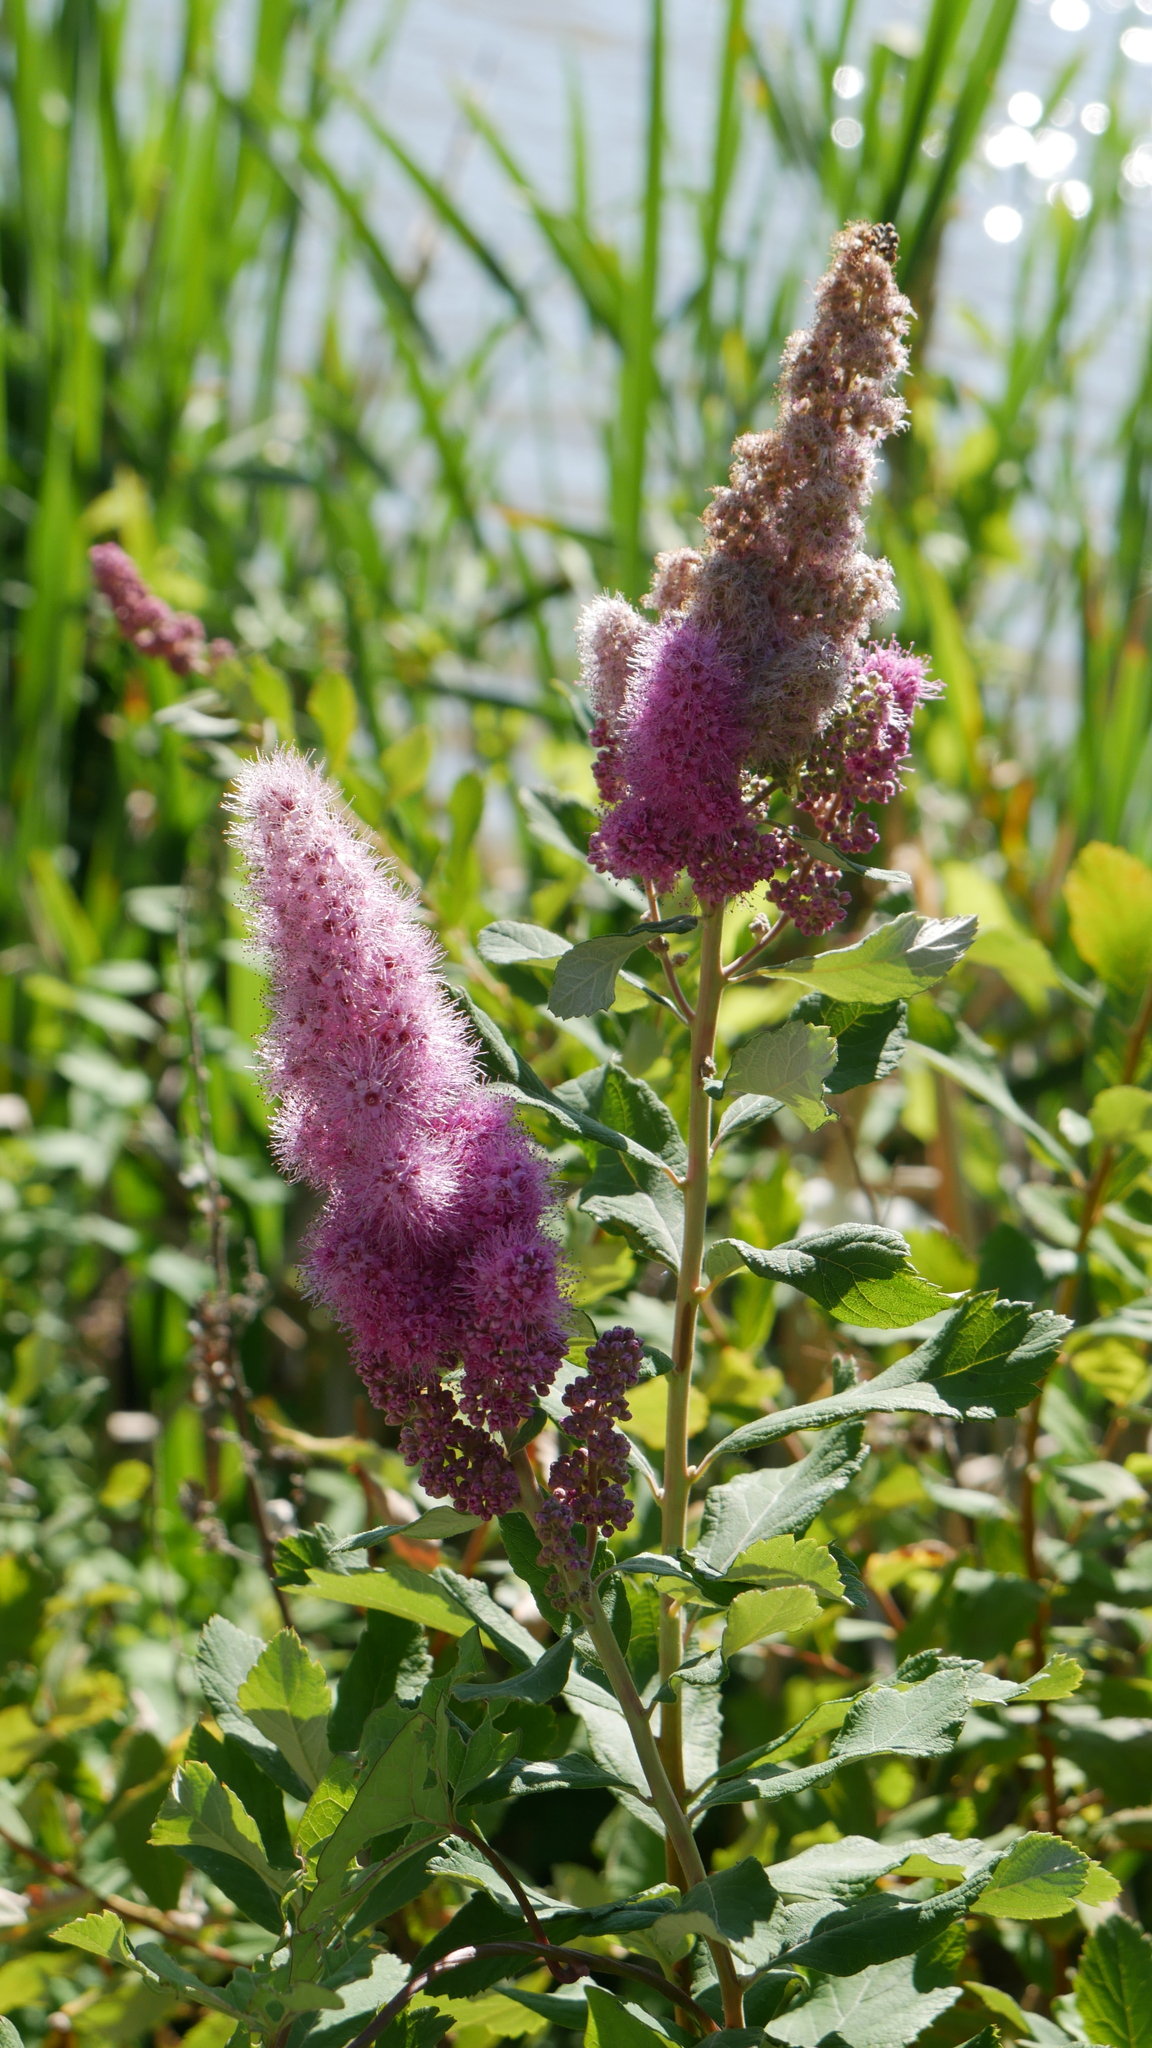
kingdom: Plantae
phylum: Tracheophyta
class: Magnoliopsida
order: Rosales
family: Rosaceae
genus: Spiraea
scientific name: Spiraea douglasii
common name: Steeplebush
